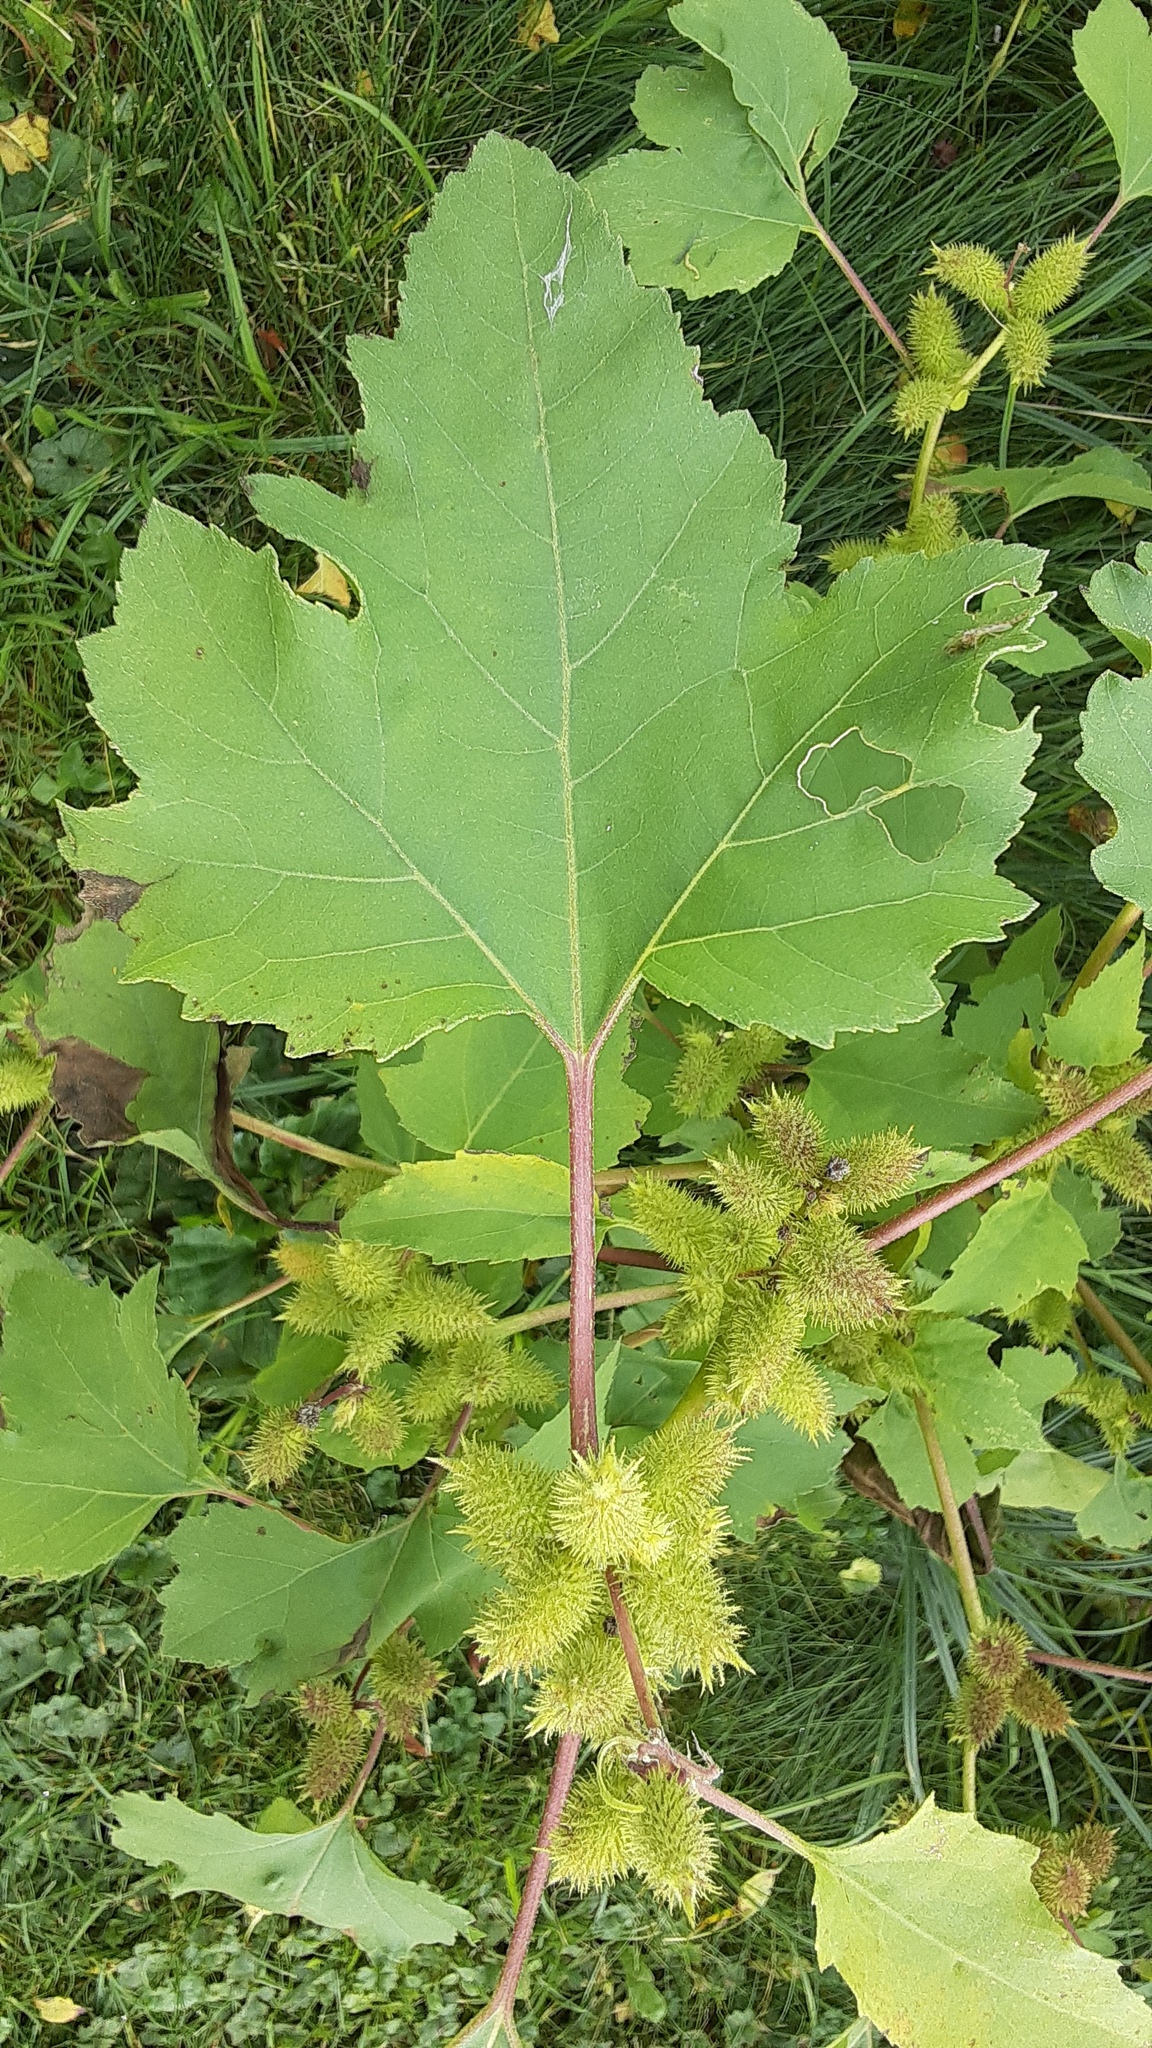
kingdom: Plantae
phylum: Tracheophyta
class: Magnoliopsida
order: Asterales
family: Asteraceae
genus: Xanthium
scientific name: Xanthium strumarium
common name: Rough cocklebur
